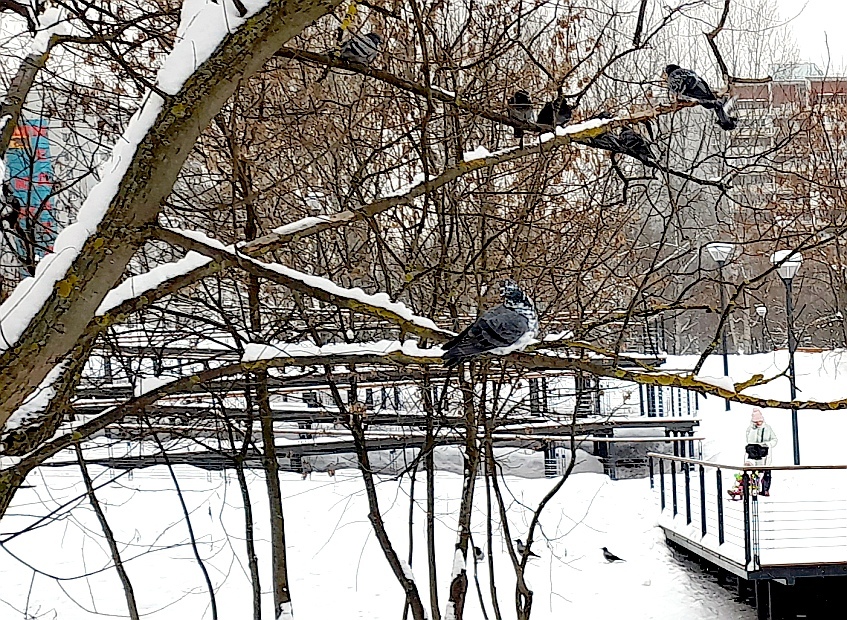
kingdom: Animalia
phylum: Chordata
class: Aves
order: Columbiformes
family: Columbidae
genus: Columba
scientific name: Columba livia
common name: Rock pigeon
